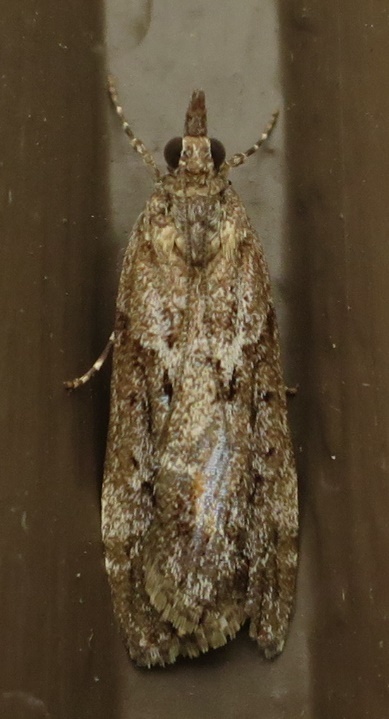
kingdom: Animalia
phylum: Arthropoda
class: Insecta
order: Lepidoptera
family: Crambidae
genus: Eudonia
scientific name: Eudonia submarginalis
